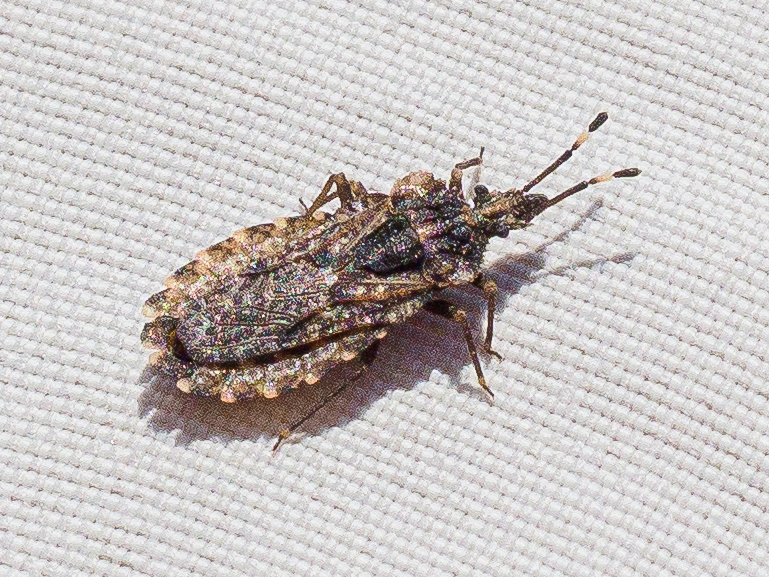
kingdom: Animalia
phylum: Arthropoda
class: Insecta
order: Hemiptera
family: Aradidae
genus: Aradus
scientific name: Aradus krueperi
